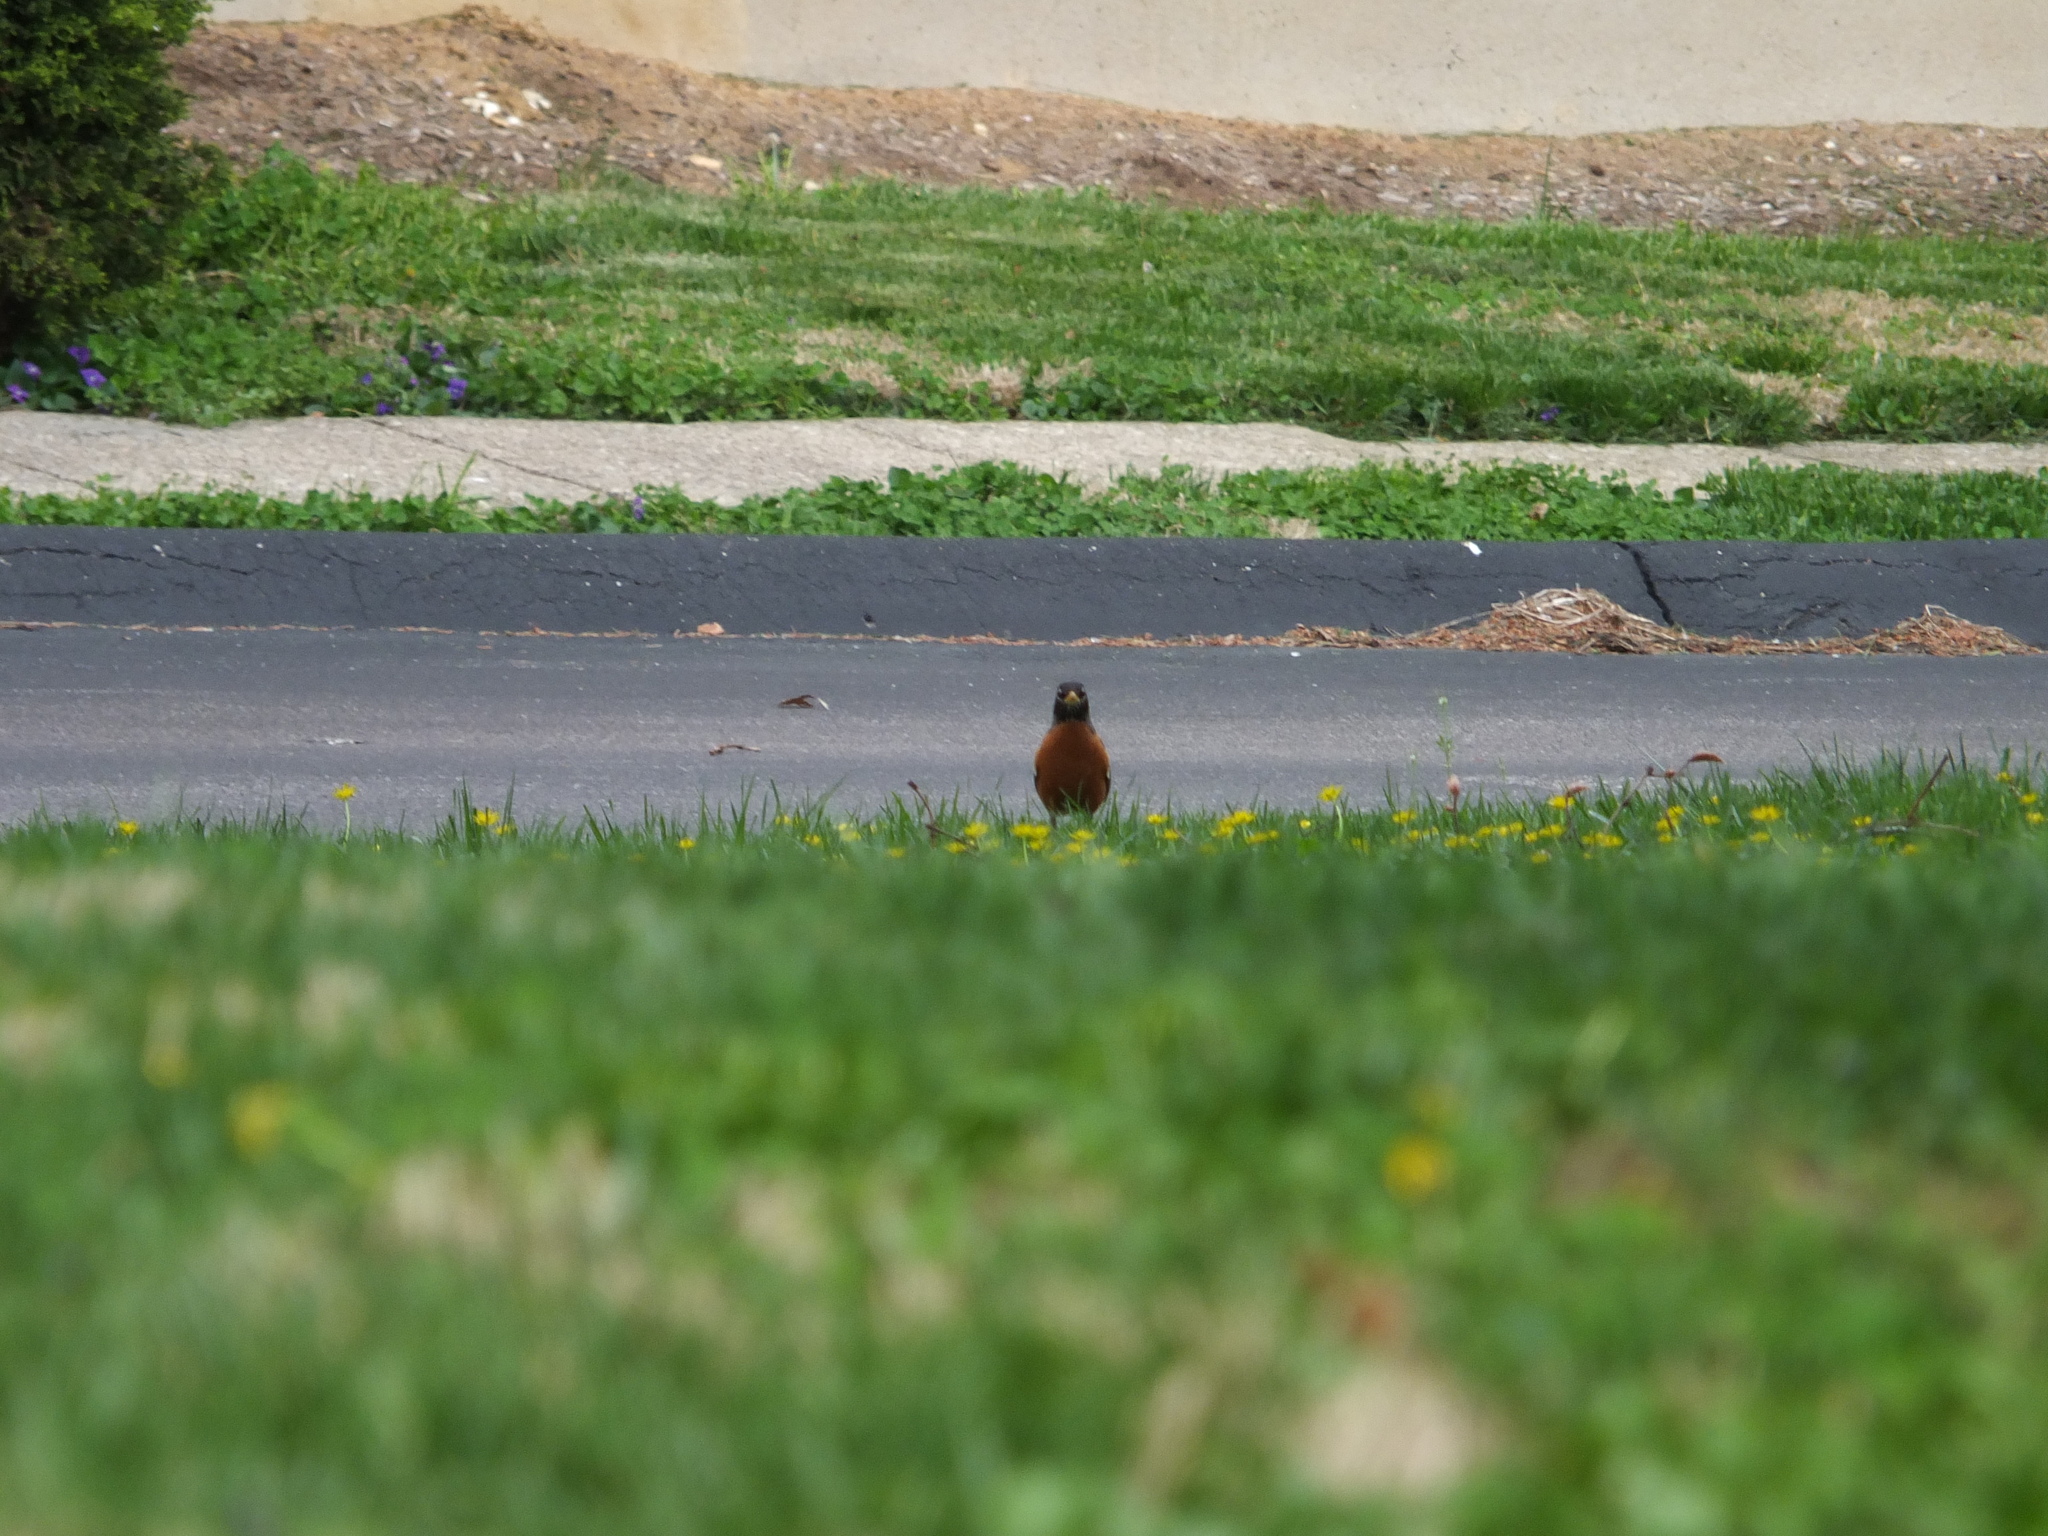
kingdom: Animalia
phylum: Chordata
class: Aves
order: Passeriformes
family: Turdidae
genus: Turdus
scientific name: Turdus migratorius
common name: American robin
